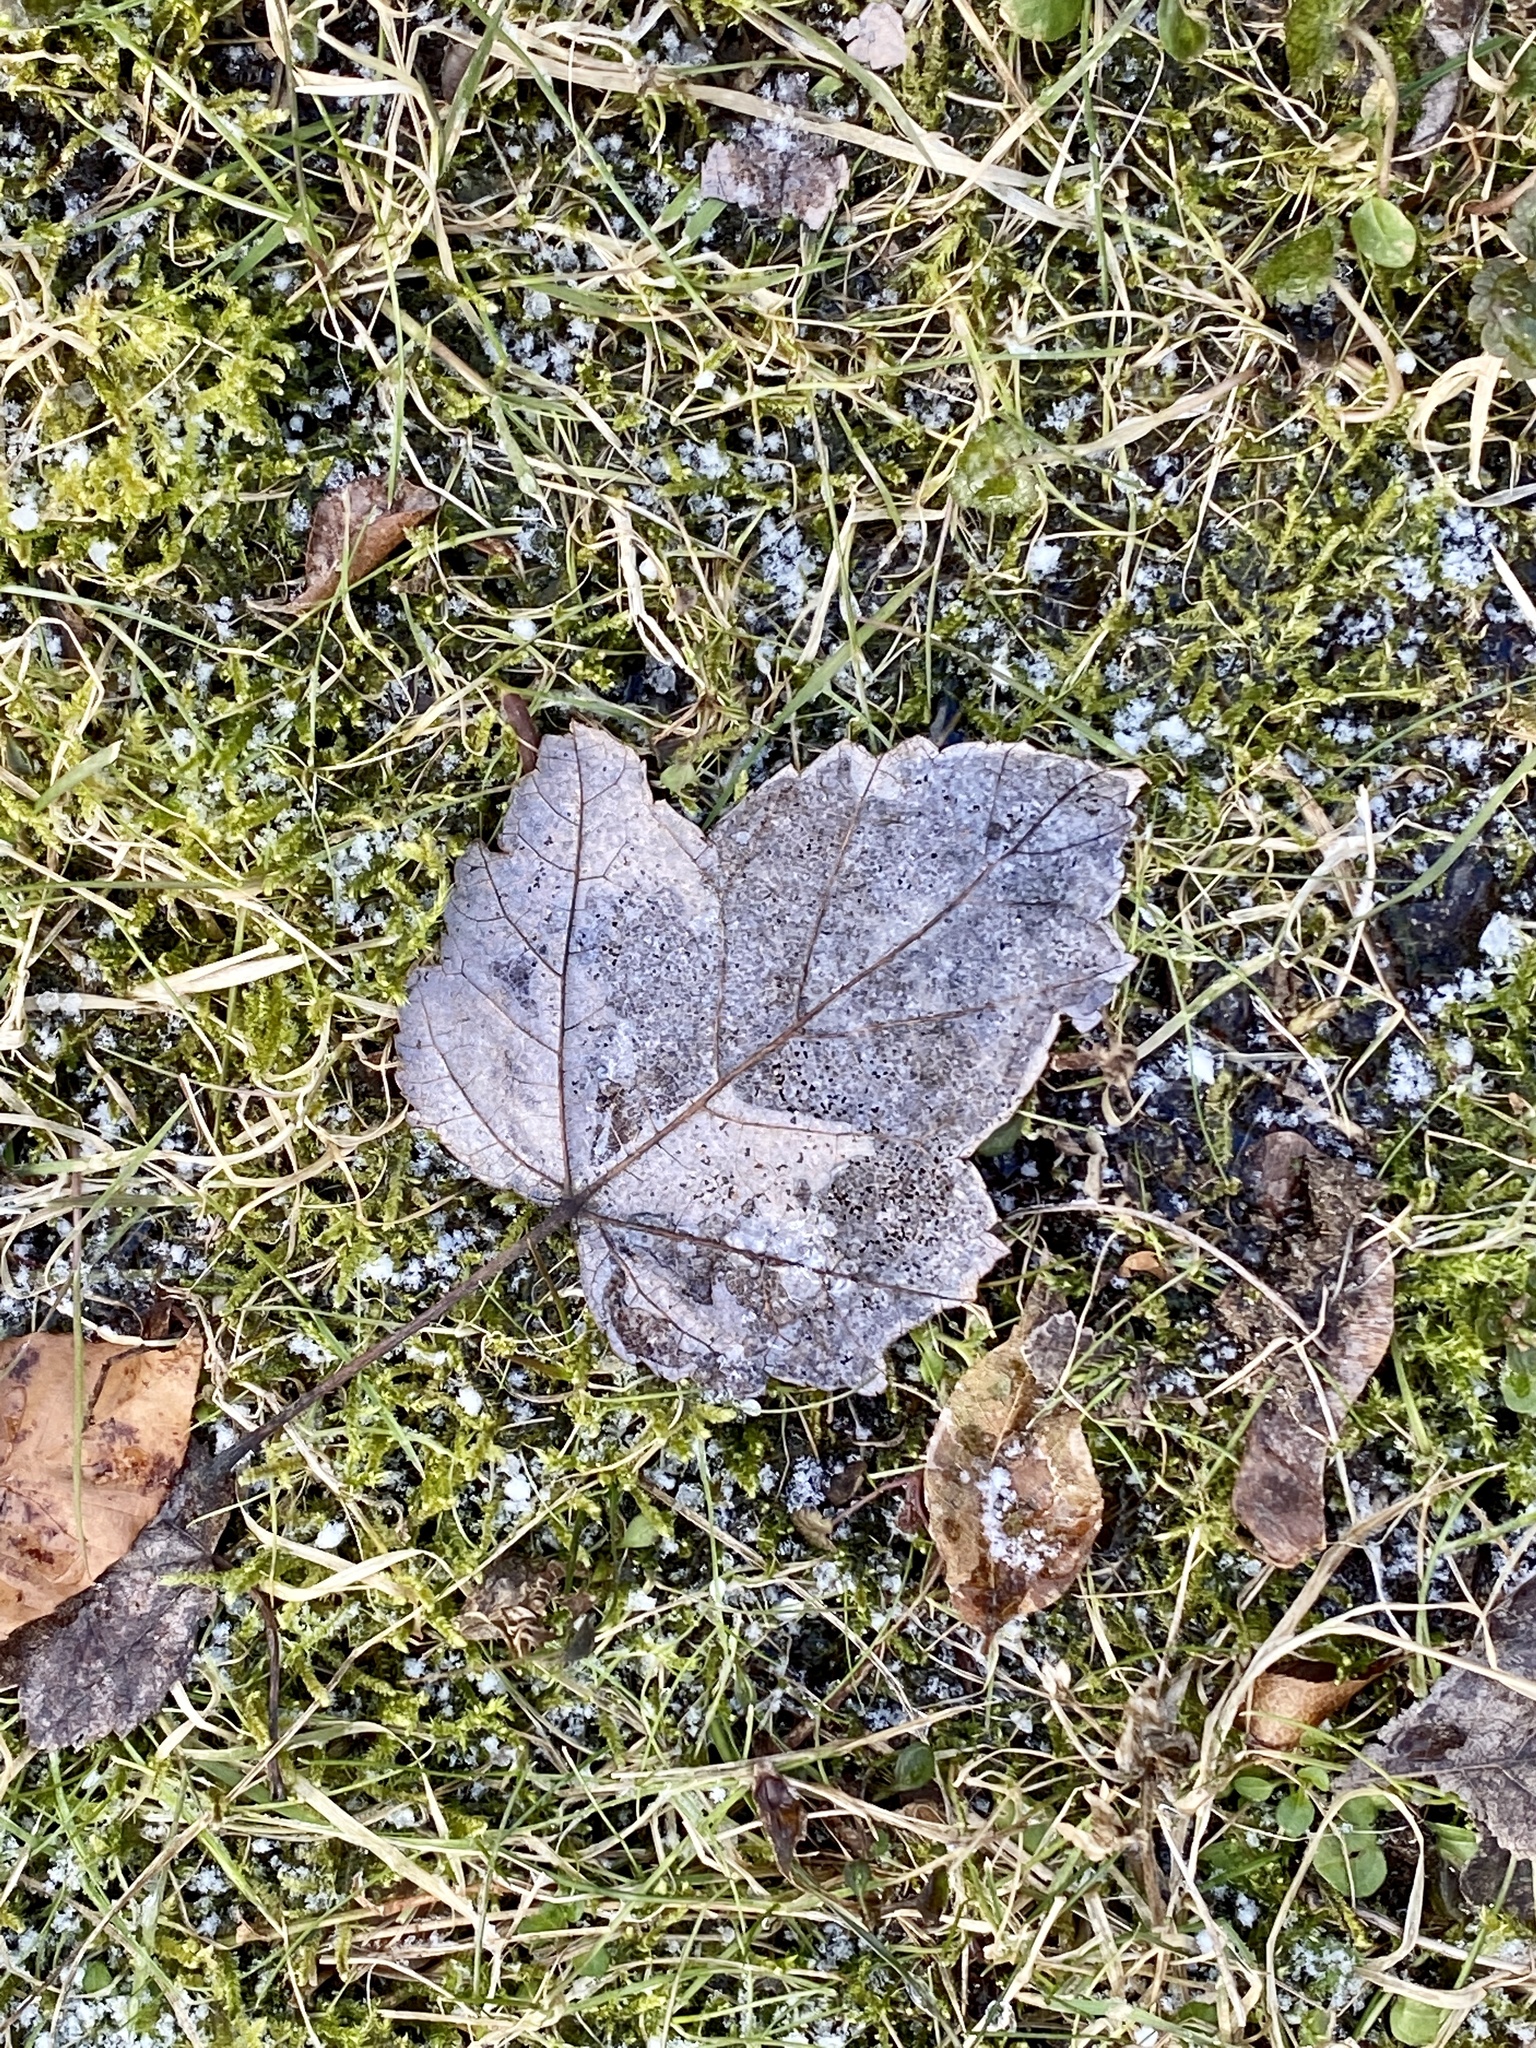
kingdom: Plantae
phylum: Tracheophyta
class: Magnoliopsida
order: Sapindales
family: Sapindaceae
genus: Acer
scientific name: Acer rubrum
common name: Red maple
